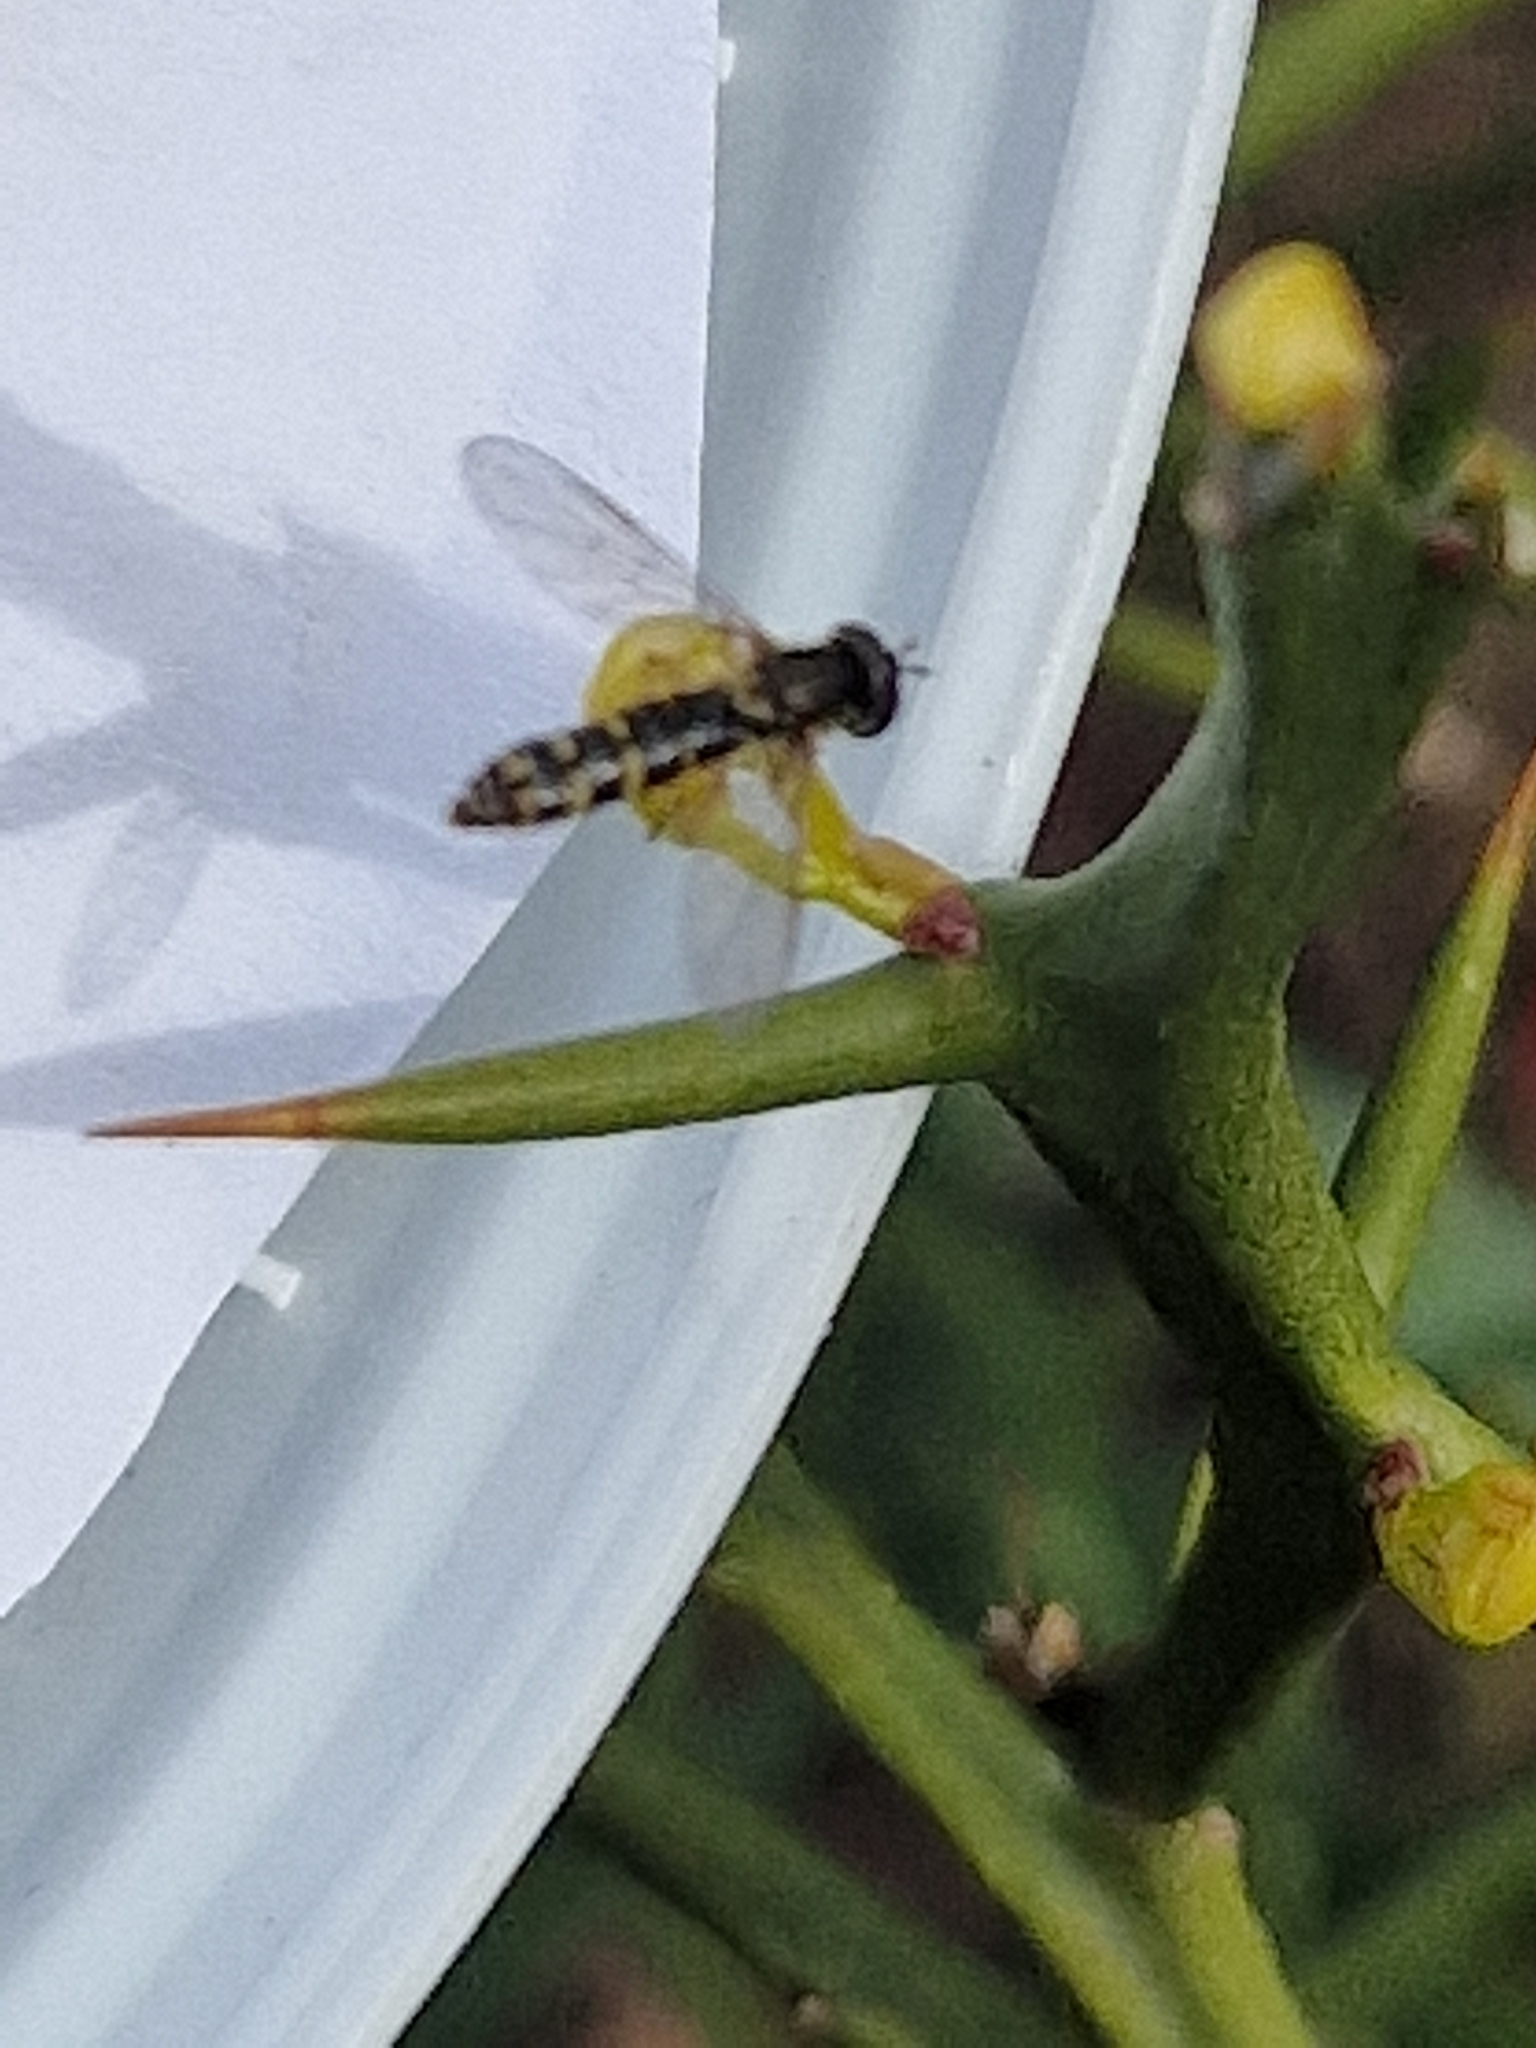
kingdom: Animalia
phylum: Arthropoda
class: Insecta
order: Diptera
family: Syrphidae
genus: Sphaerophoria
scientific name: Sphaerophoria
